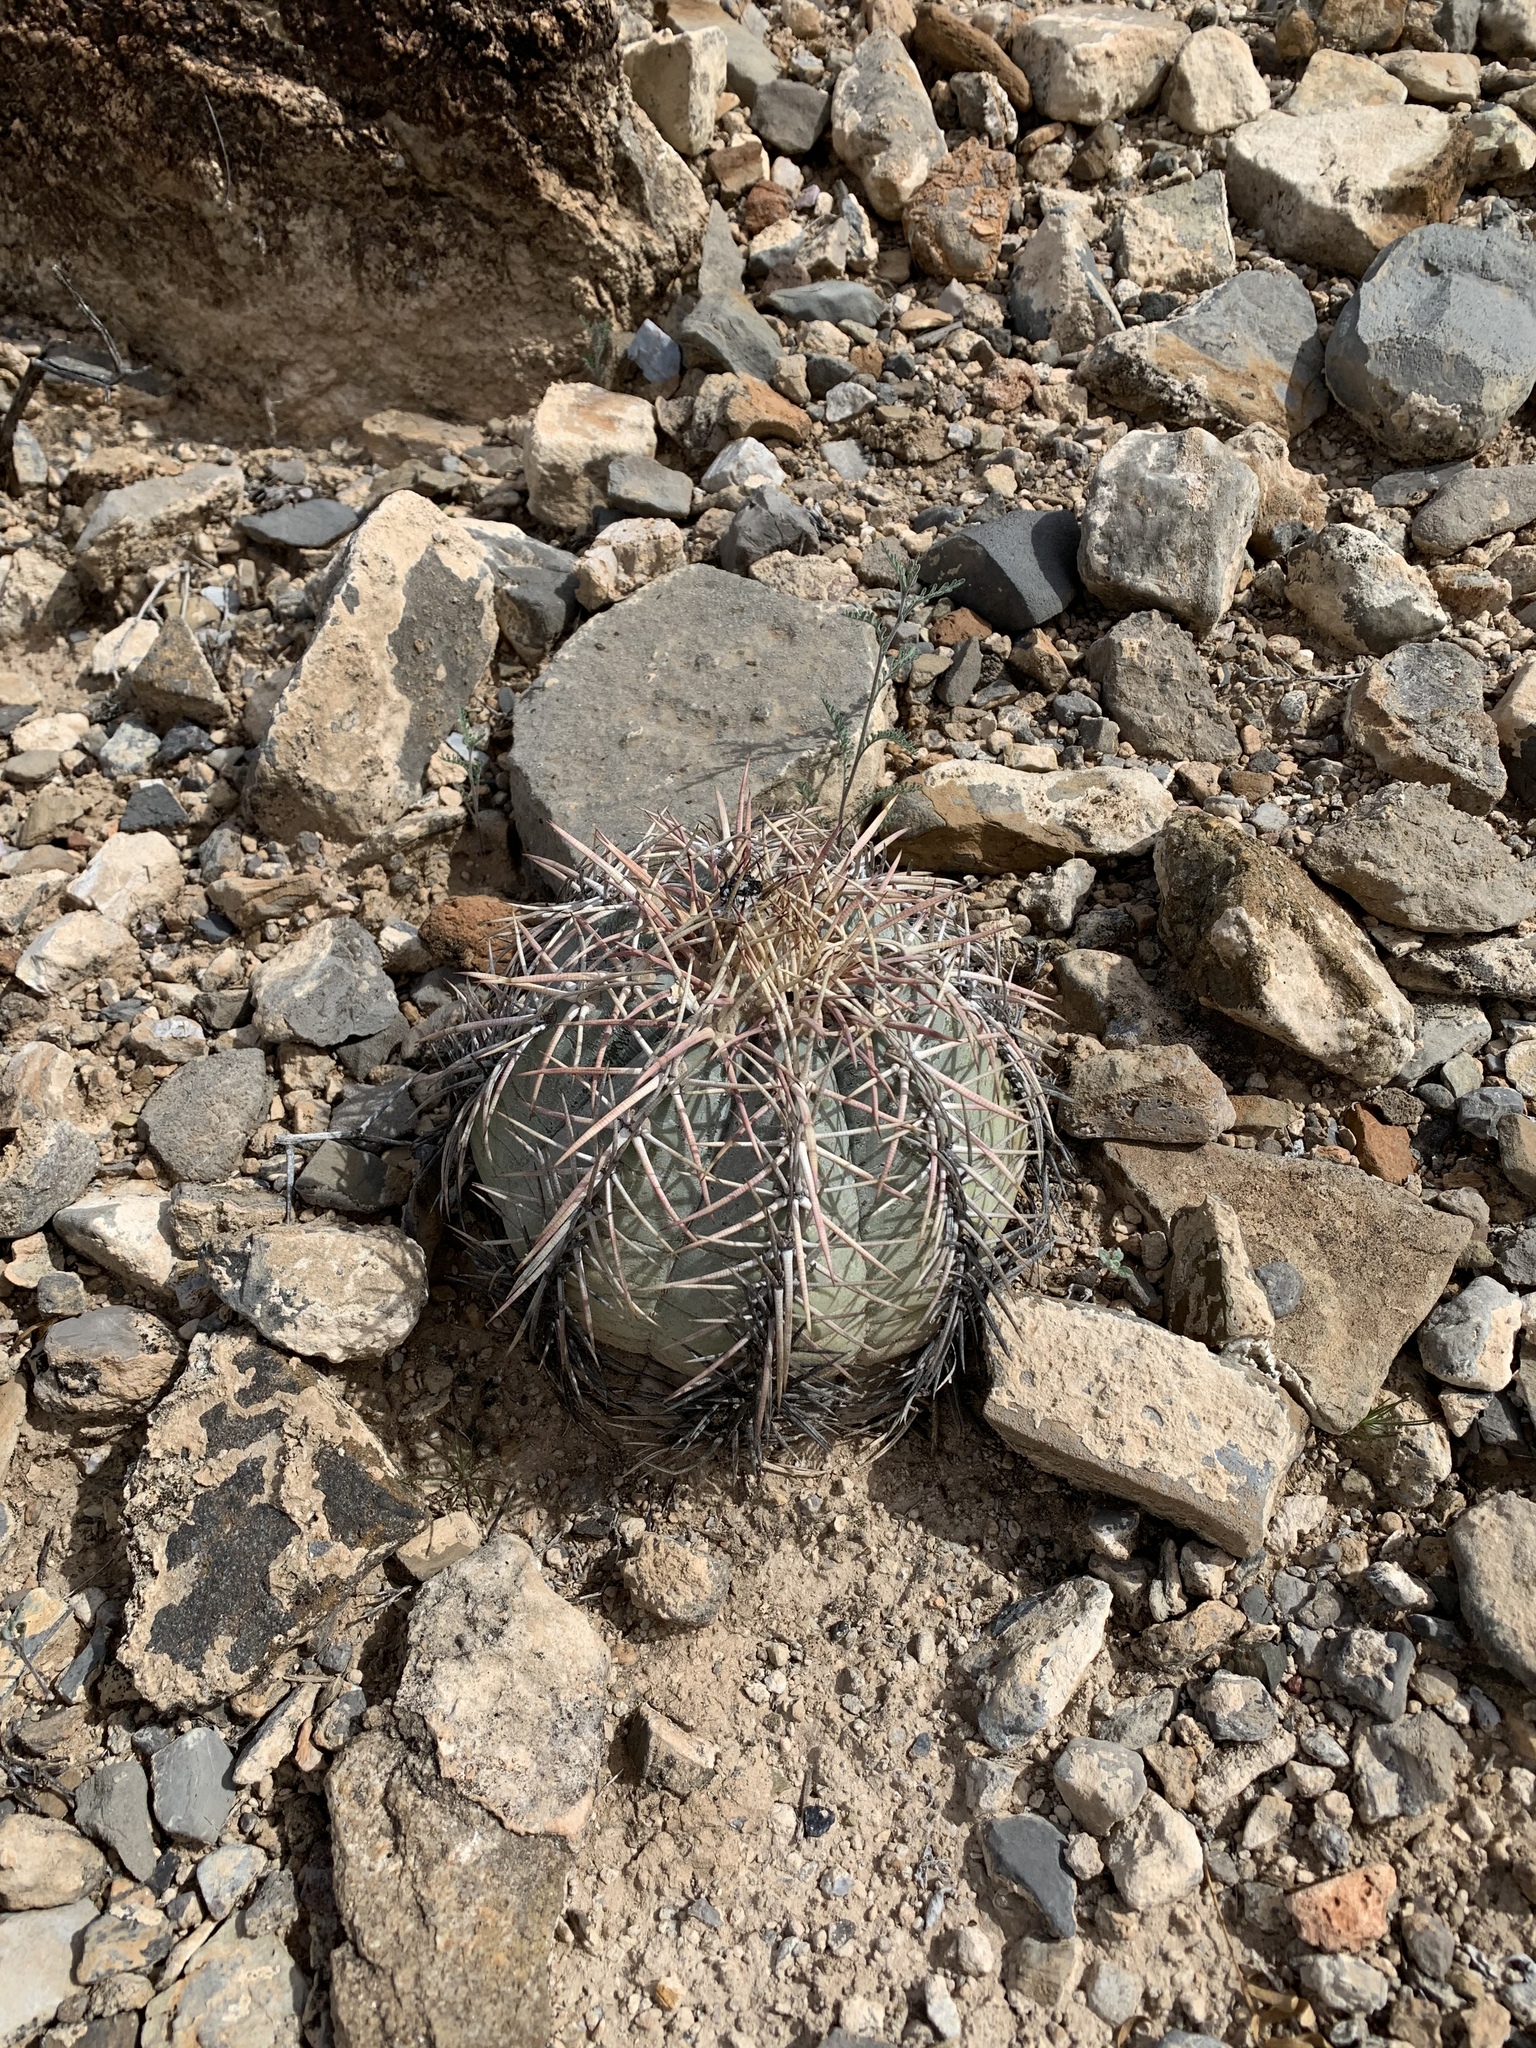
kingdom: Plantae
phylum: Tracheophyta
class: Magnoliopsida
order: Caryophyllales
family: Cactaceae
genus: Echinocactus
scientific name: Echinocactus horizonthalonius
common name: Devilshead
